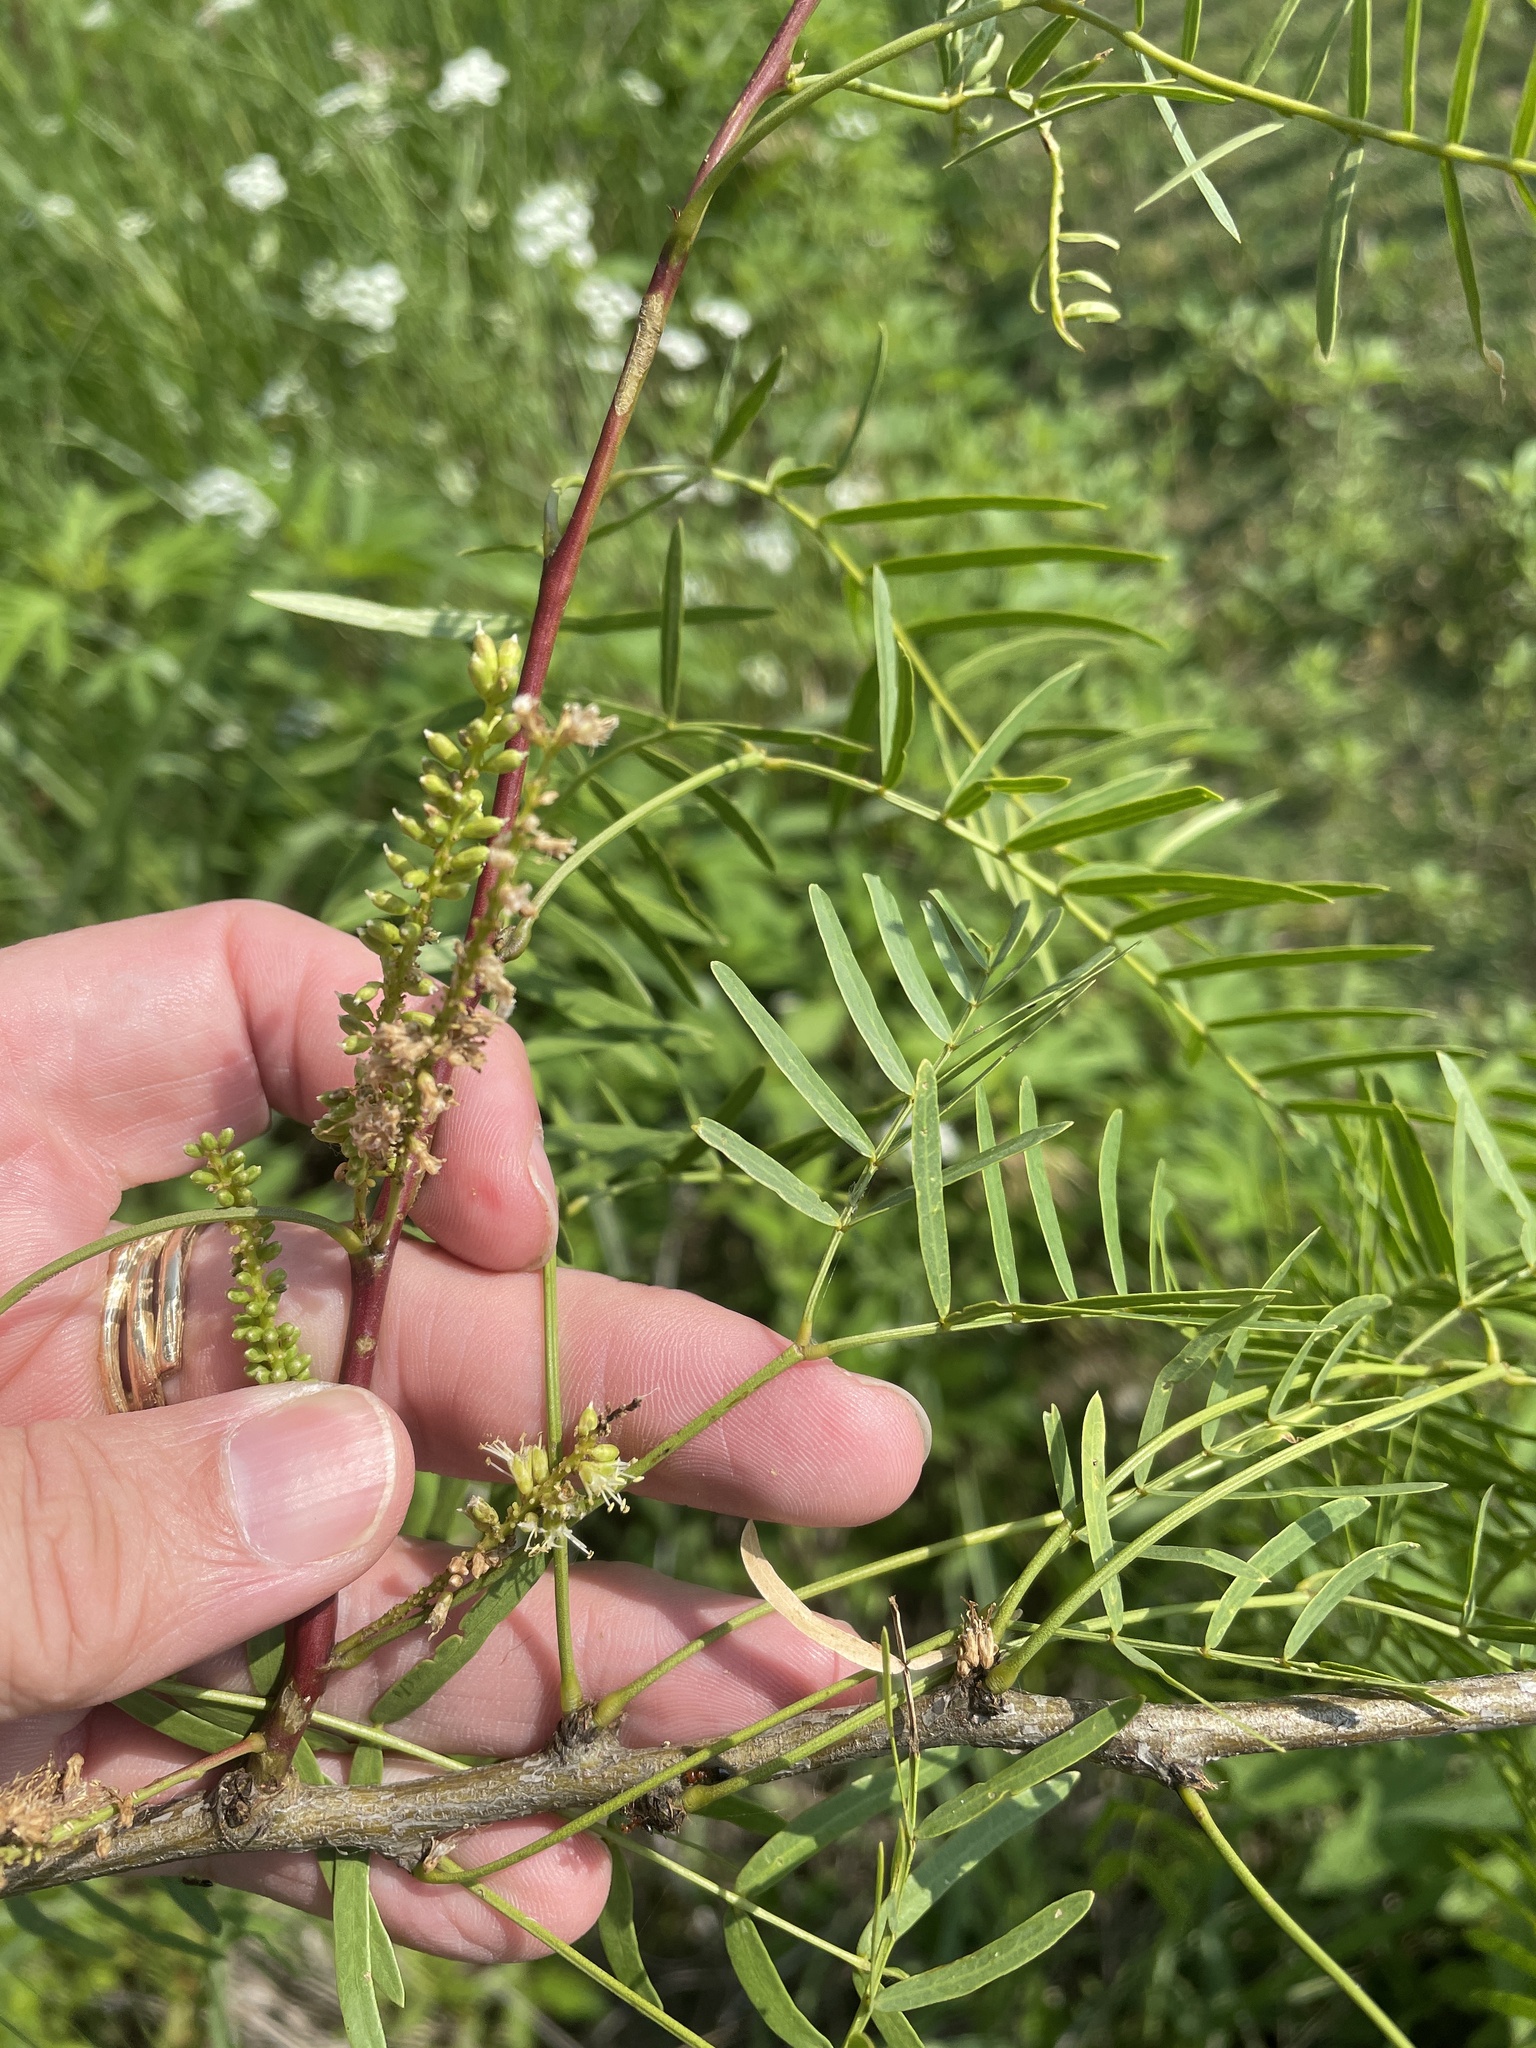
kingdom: Plantae
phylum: Tracheophyta
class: Magnoliopsida
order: Fabales
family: Fabaceae
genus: Prosopis
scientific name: Prosopis glandulosa
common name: Honey mesquite
